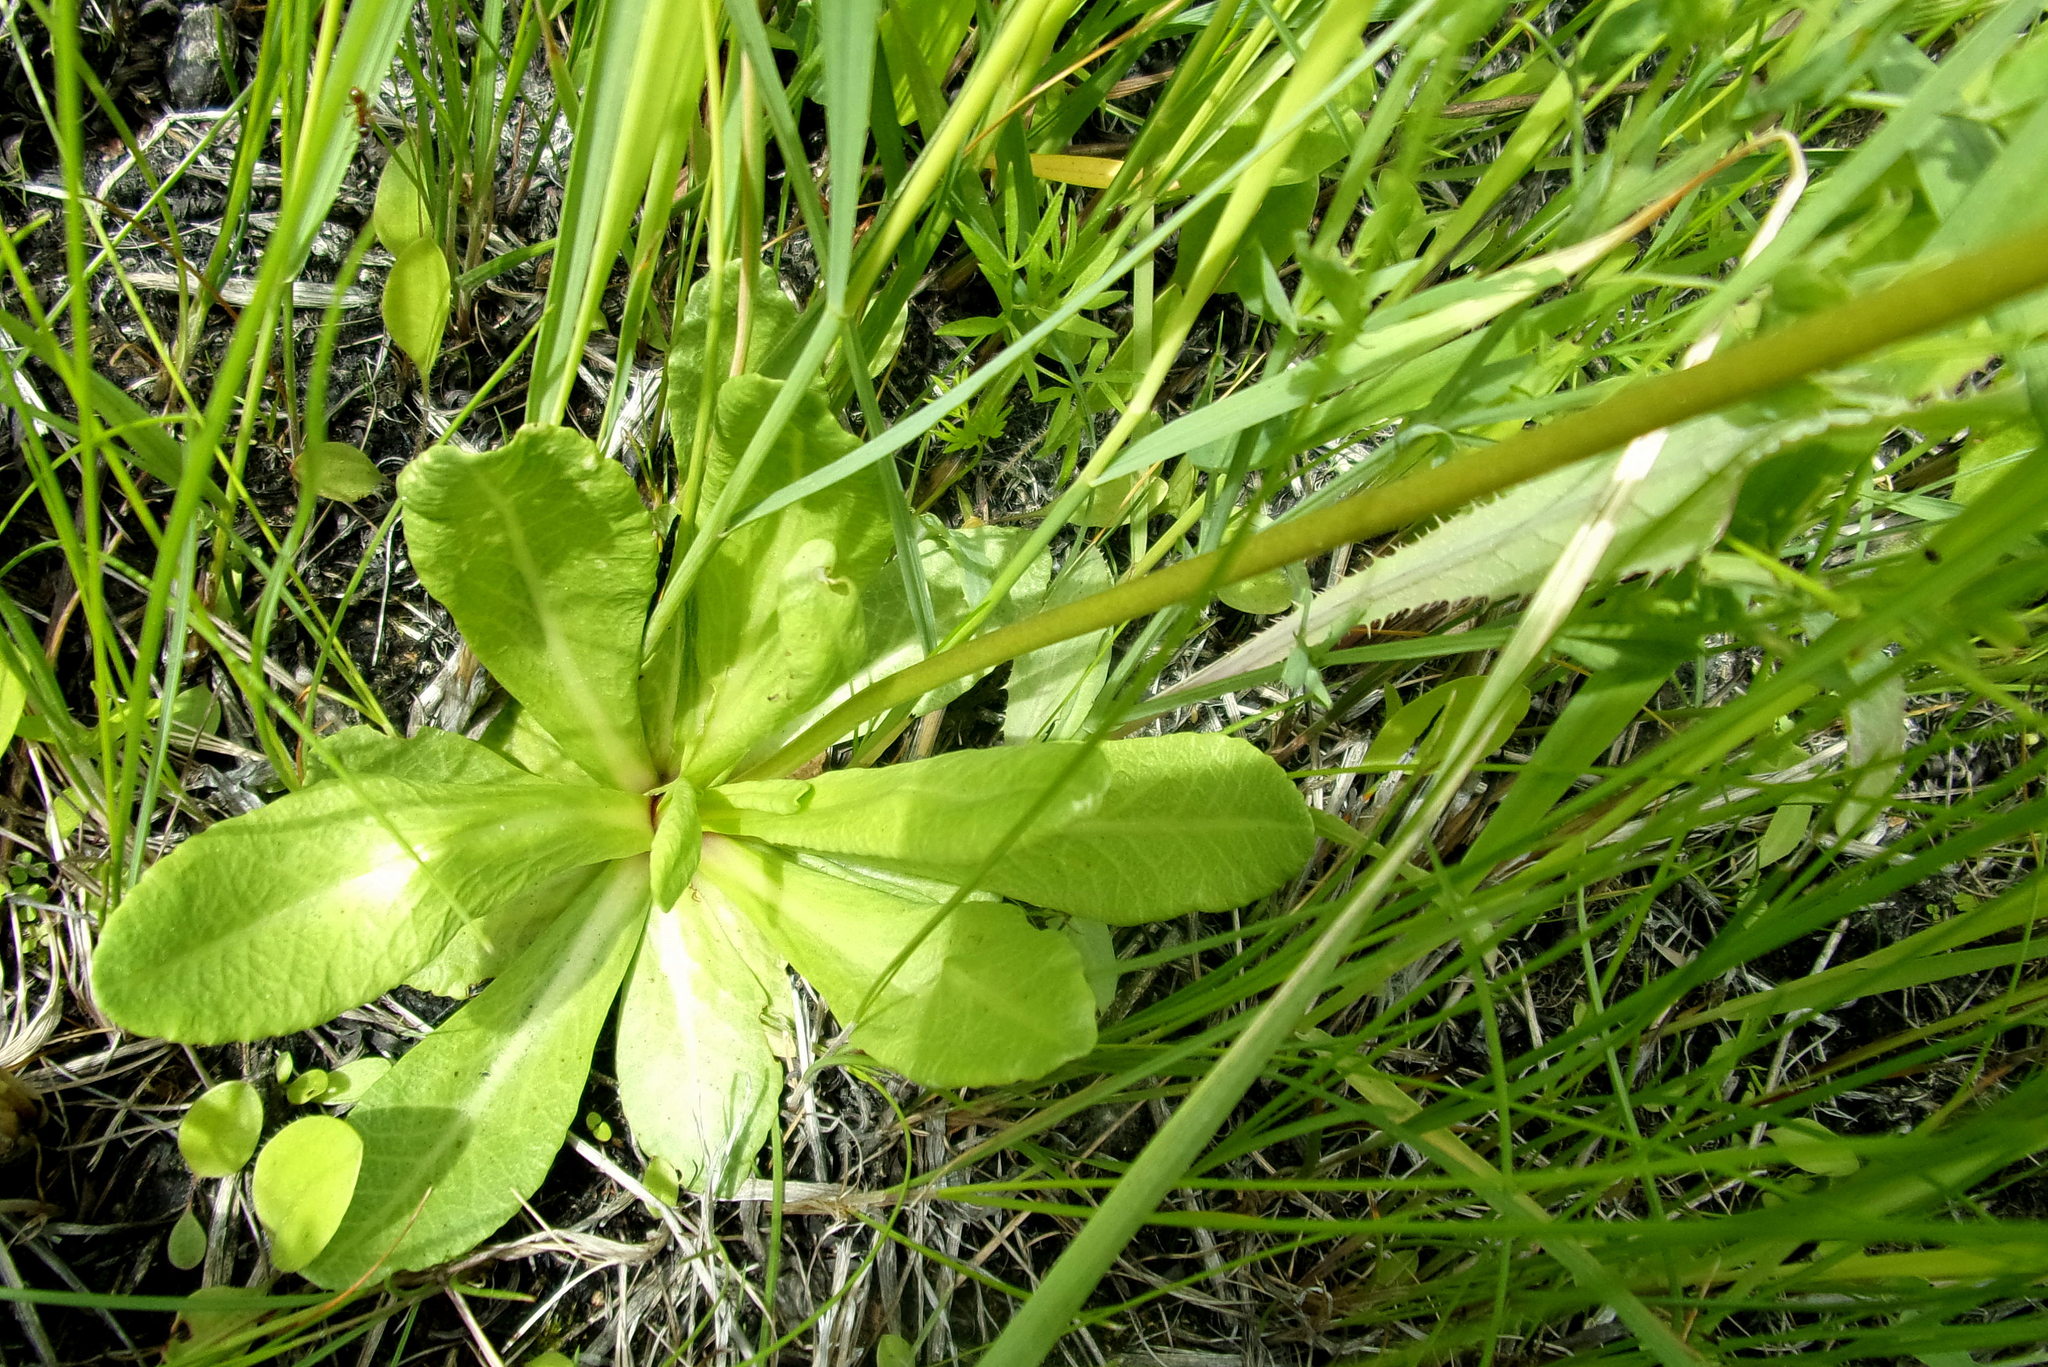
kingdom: Plantae
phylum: Tracheophyta
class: Magnoliopsida
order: Ericales
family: Primulaceae
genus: Primula
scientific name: Primula farinosa
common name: Bird's-eye primrose
